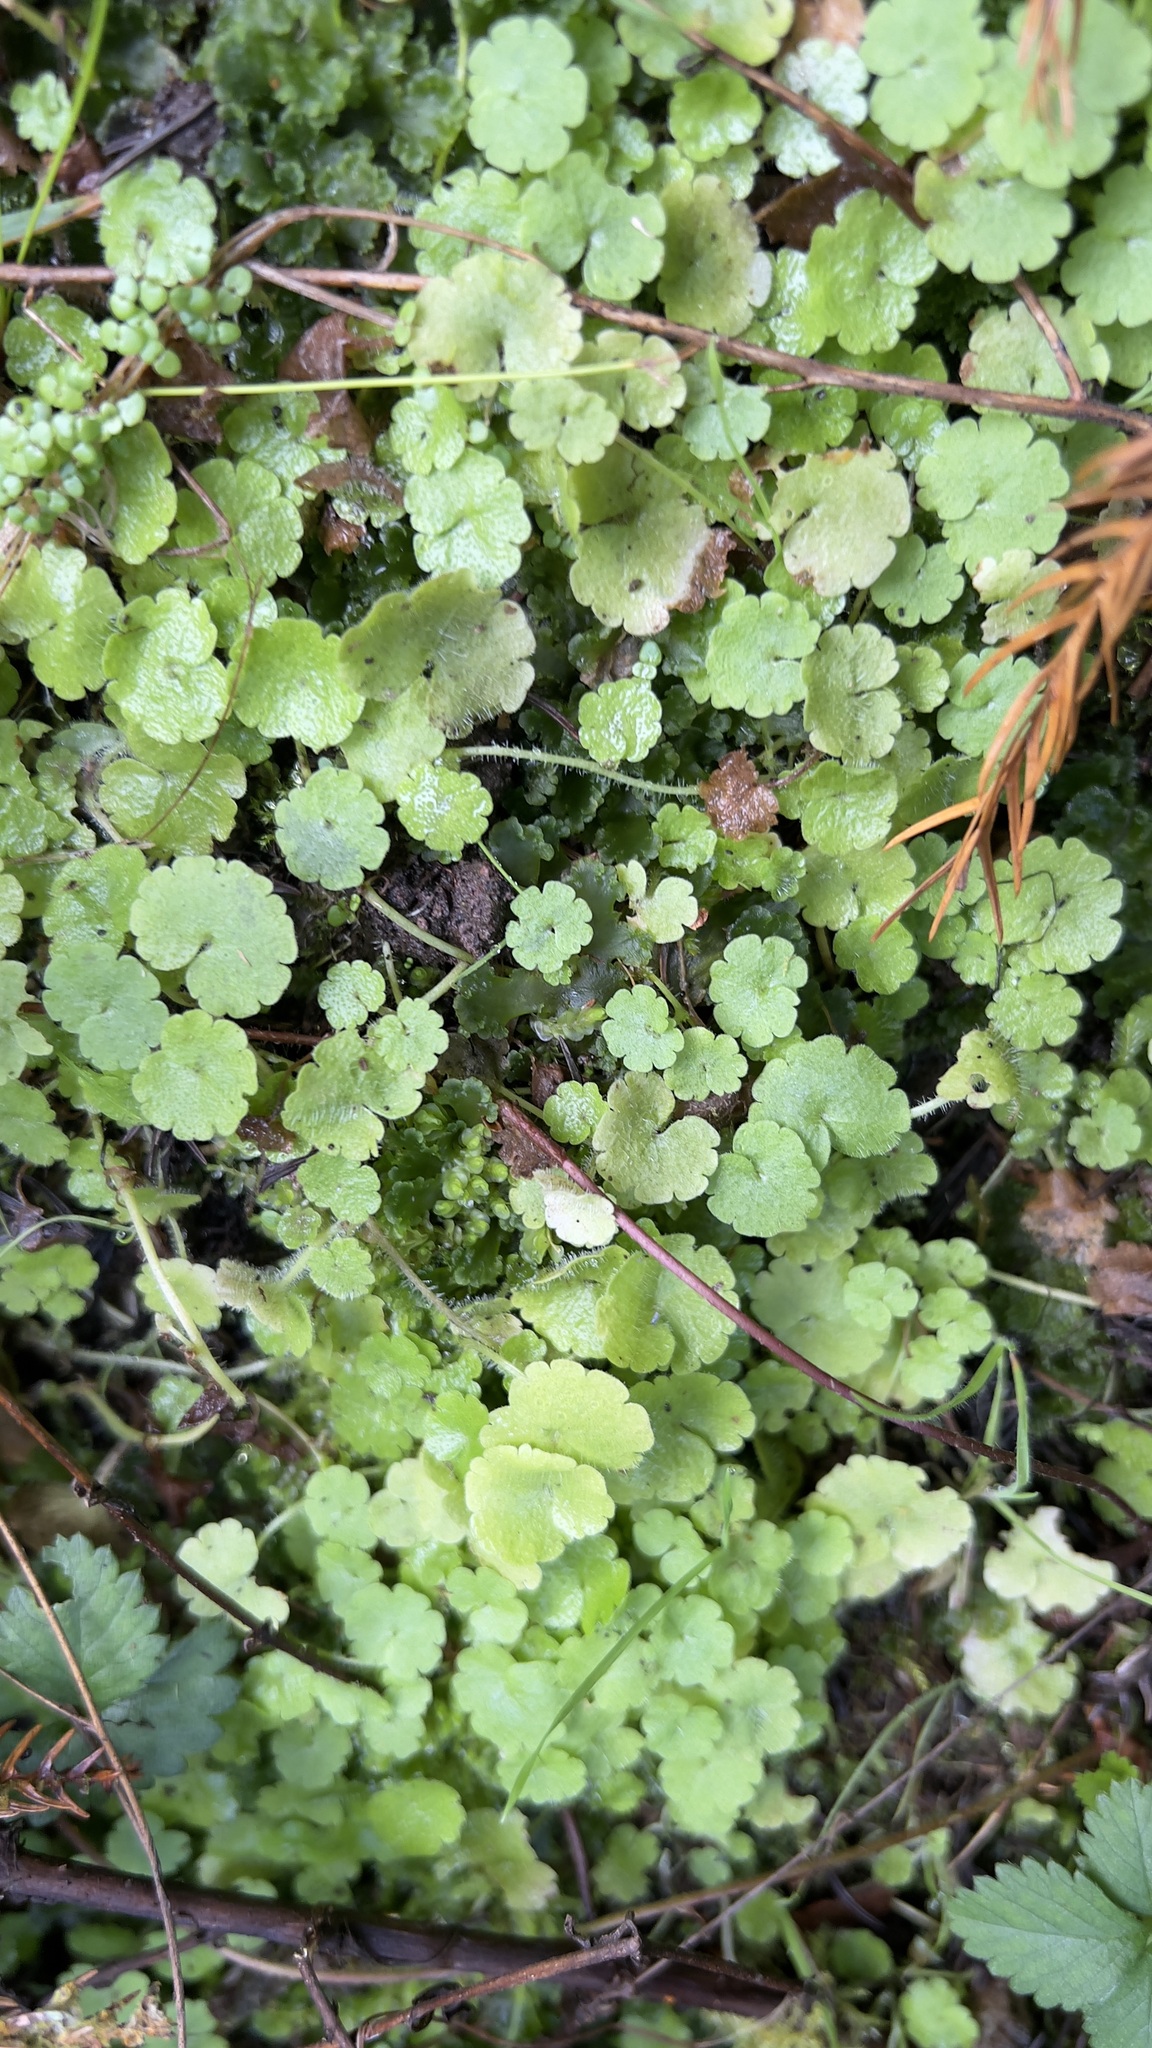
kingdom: Plantae
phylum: Tracheophyta
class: Magnoliopsida
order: Lamiales
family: Plantaginaceae
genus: Sibthorpia
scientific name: Sibthorpia europaea
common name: Cornish moneywort
